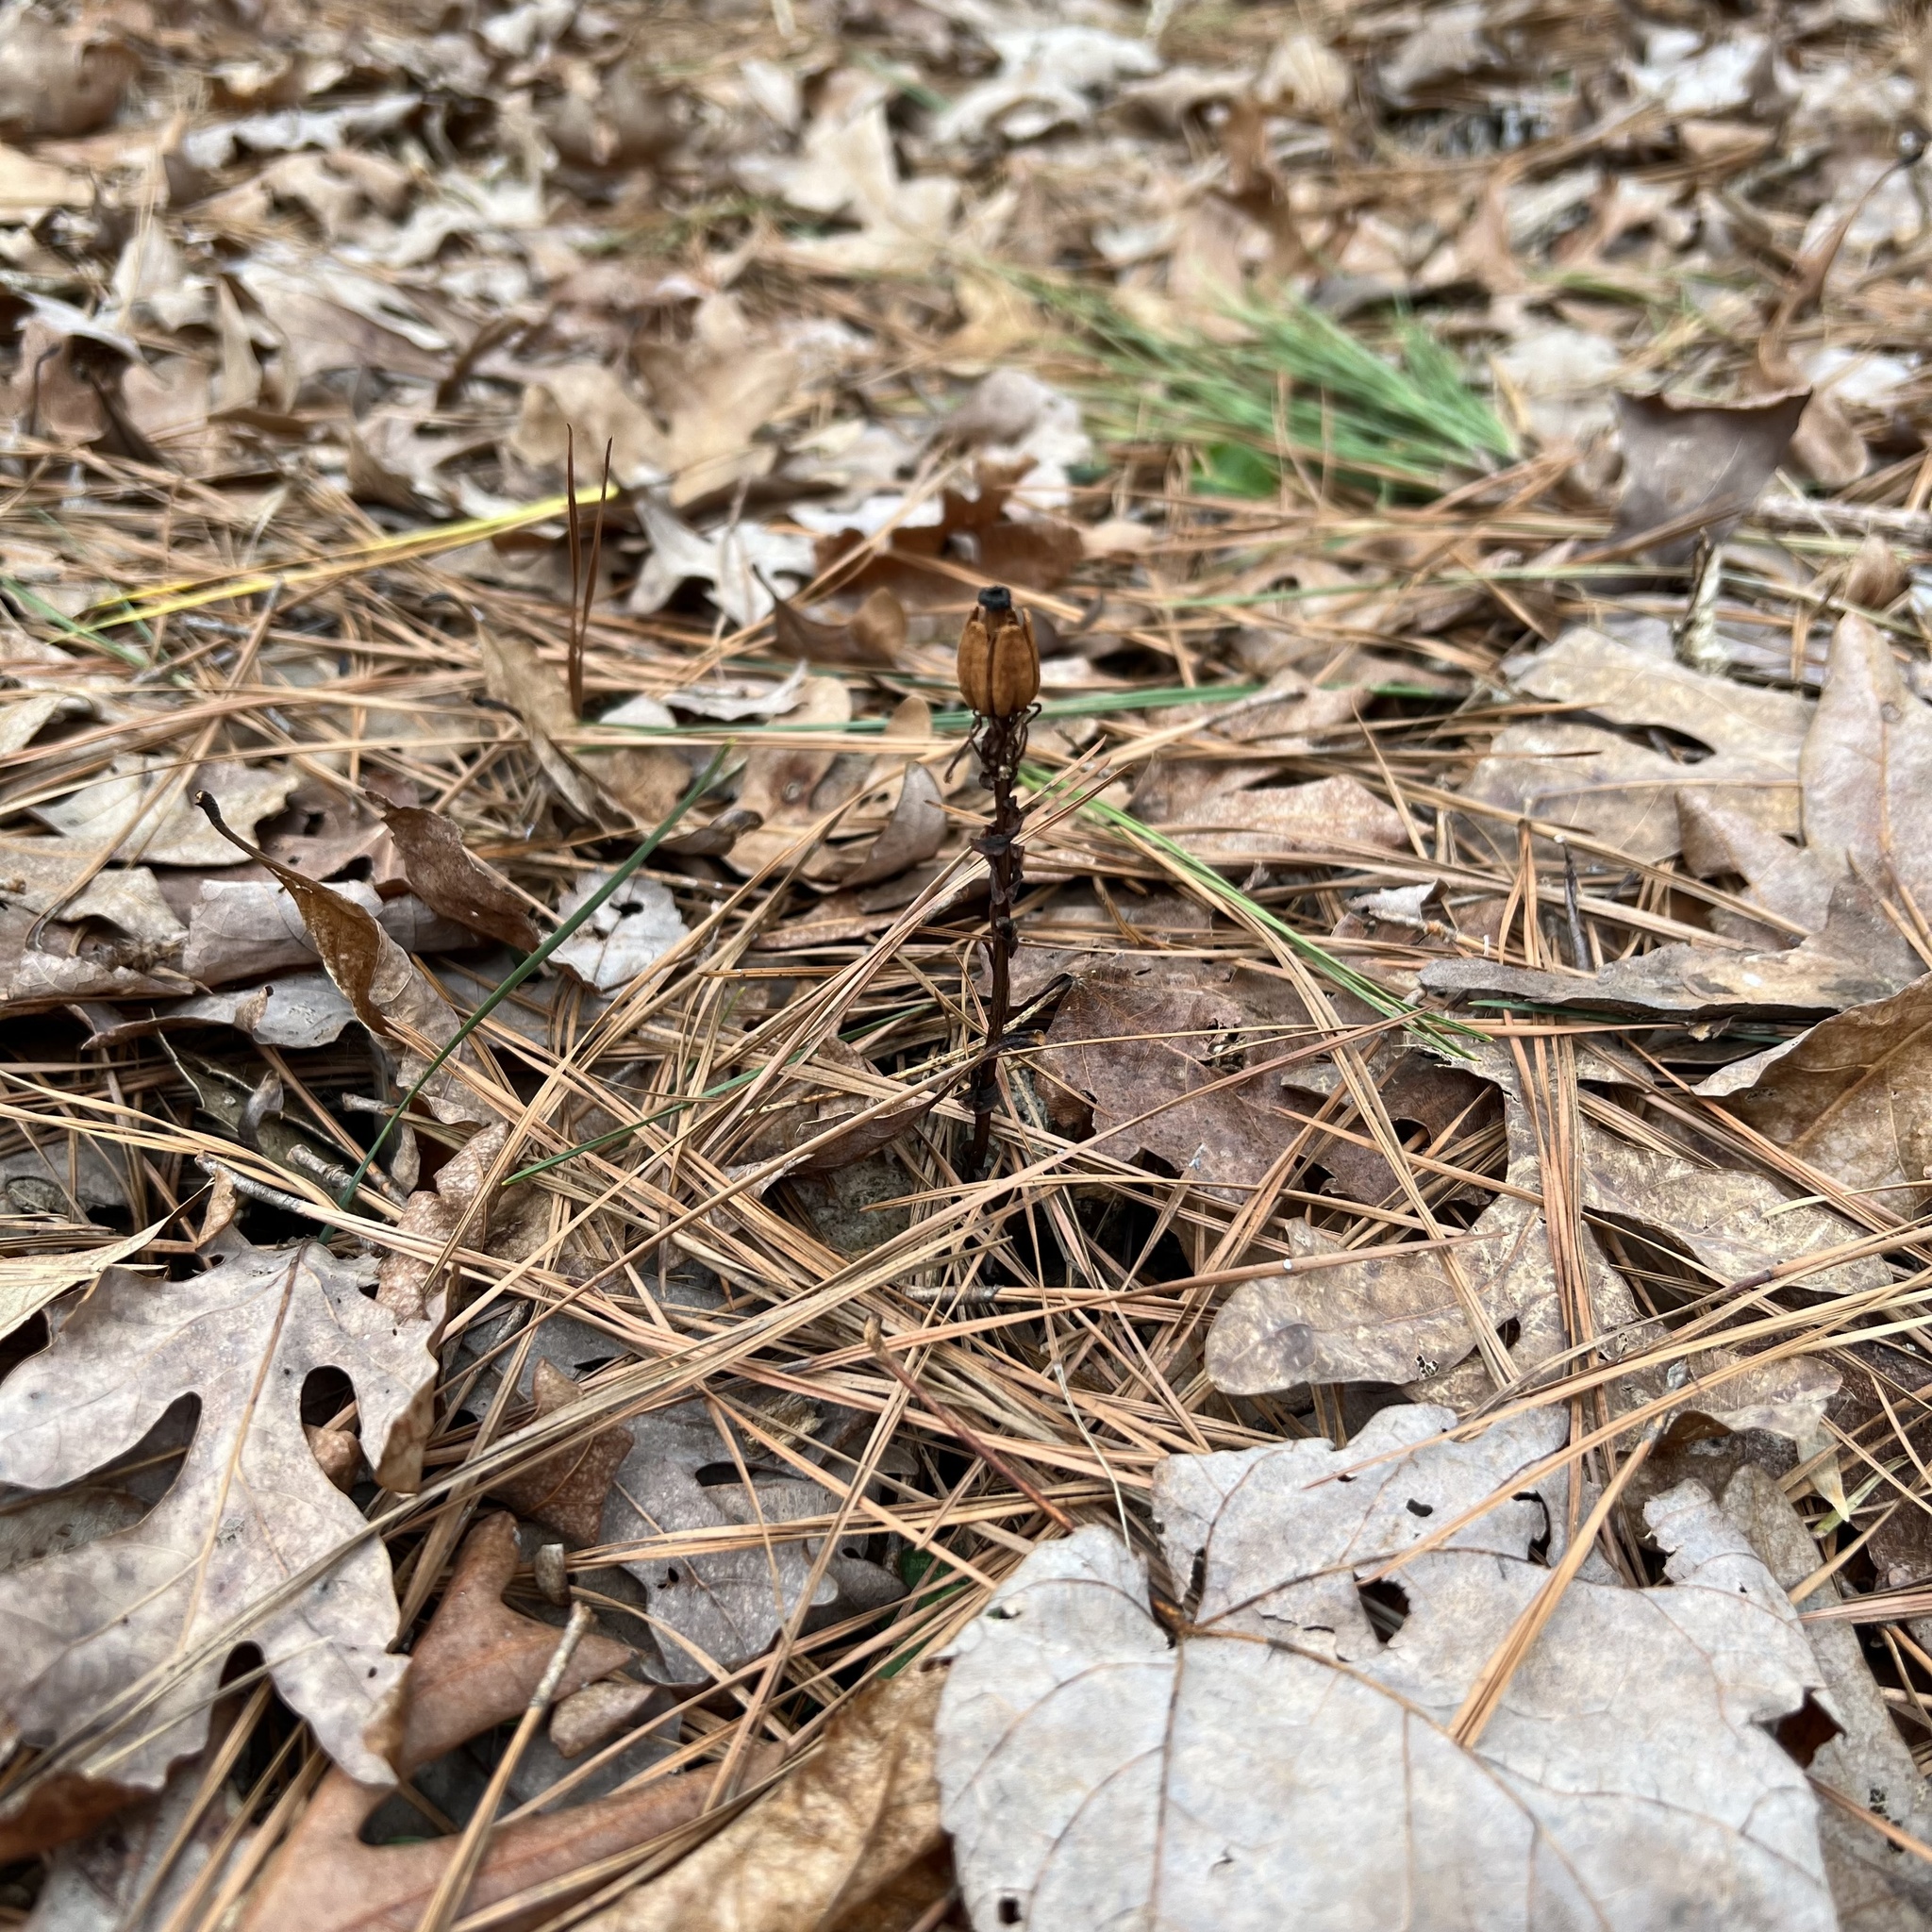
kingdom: Plantae
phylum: Tracheophyta
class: Magnoliopsida
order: Ericales
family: Ericaceae
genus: Monotropa
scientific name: Monotropa uniflora
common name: Convulsion root
